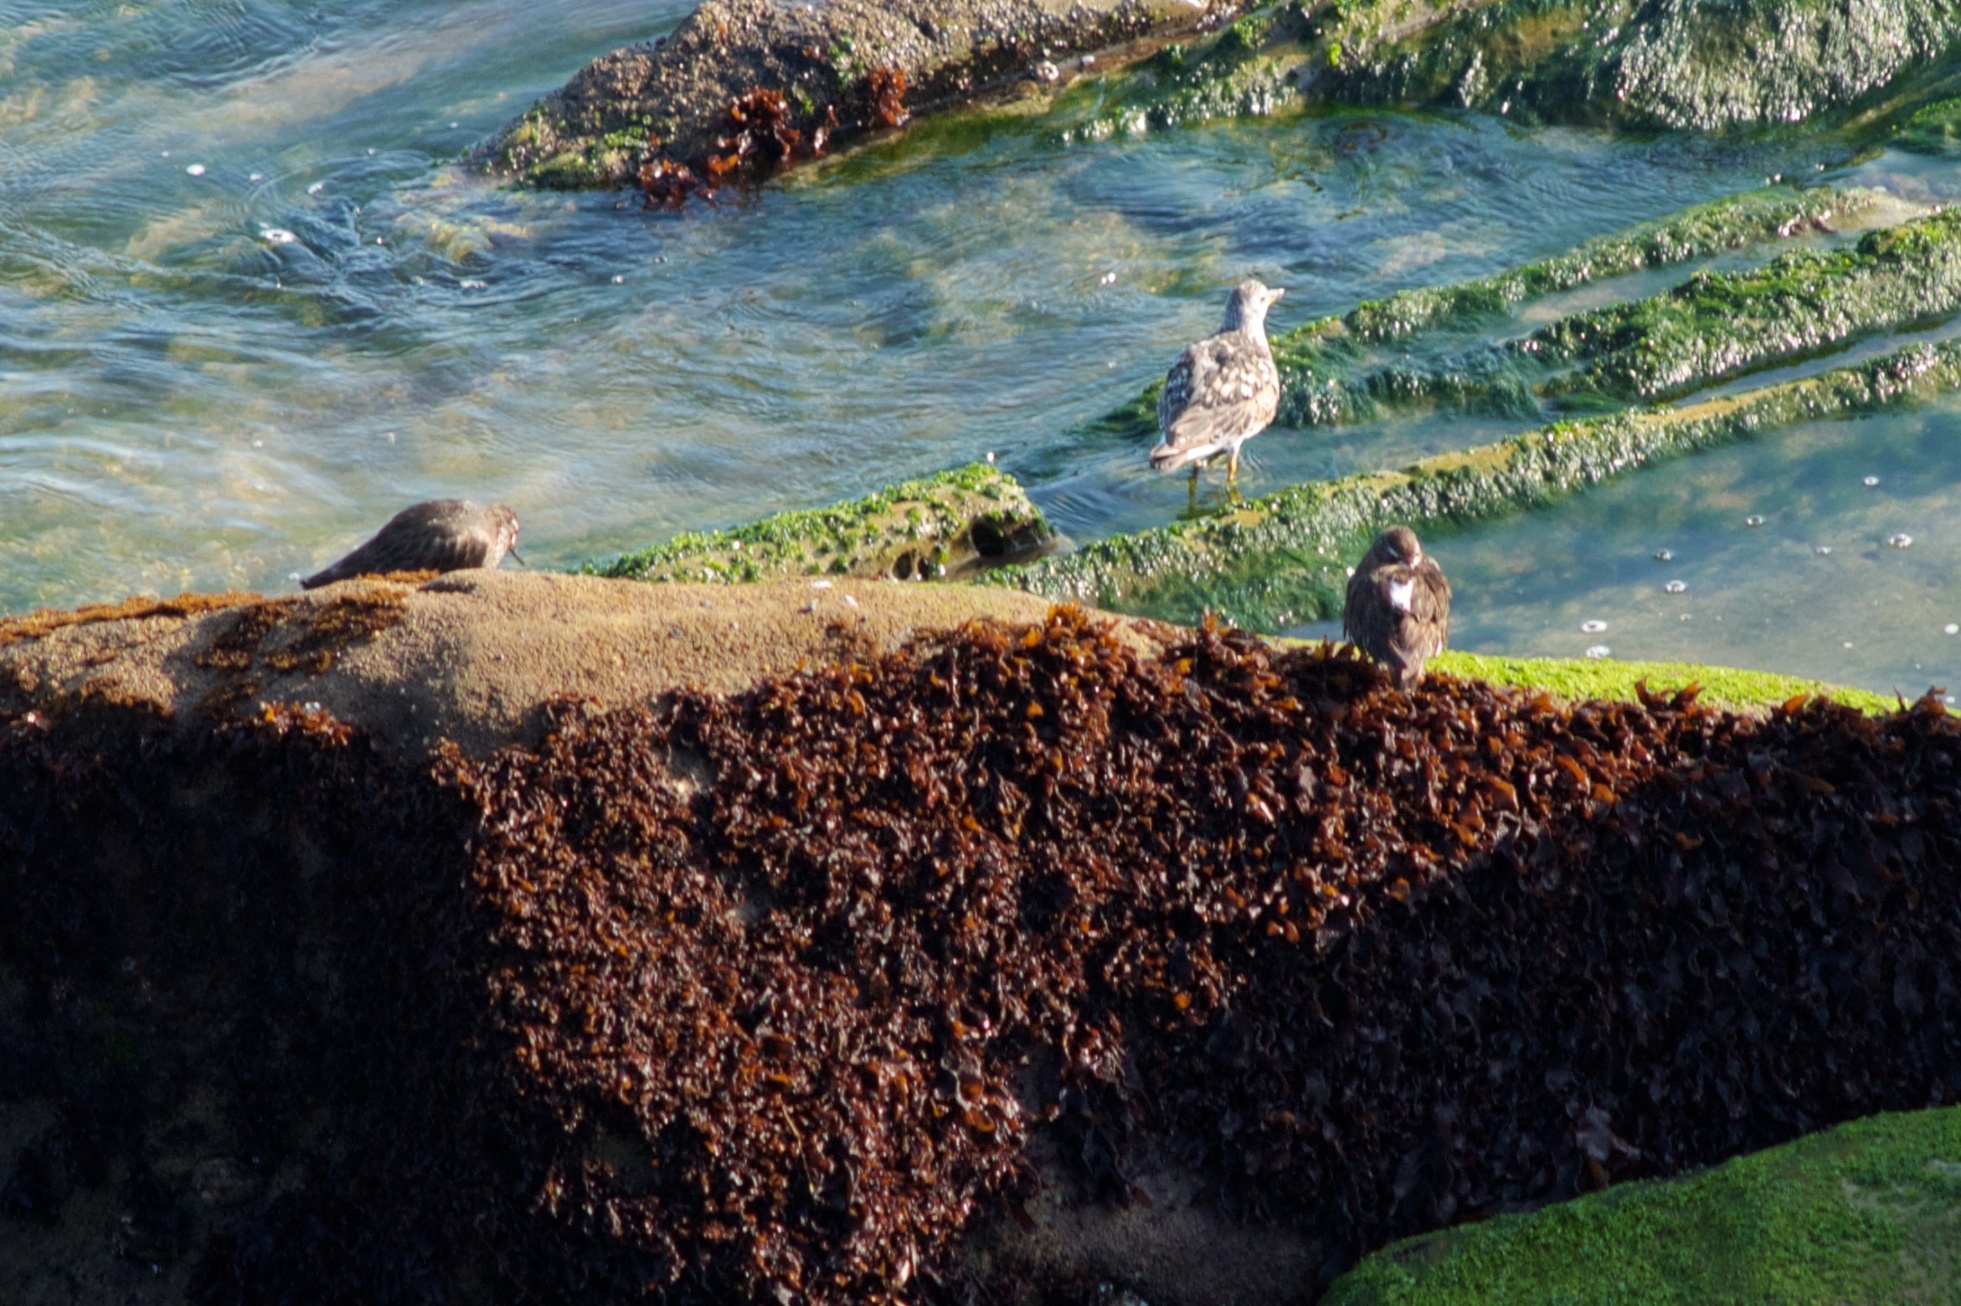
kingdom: Animalia
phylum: Chordata
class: Aves
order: Charadriiformes
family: Scolopacidae
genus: Calidris
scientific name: Calidris virgata
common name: Surfbird
